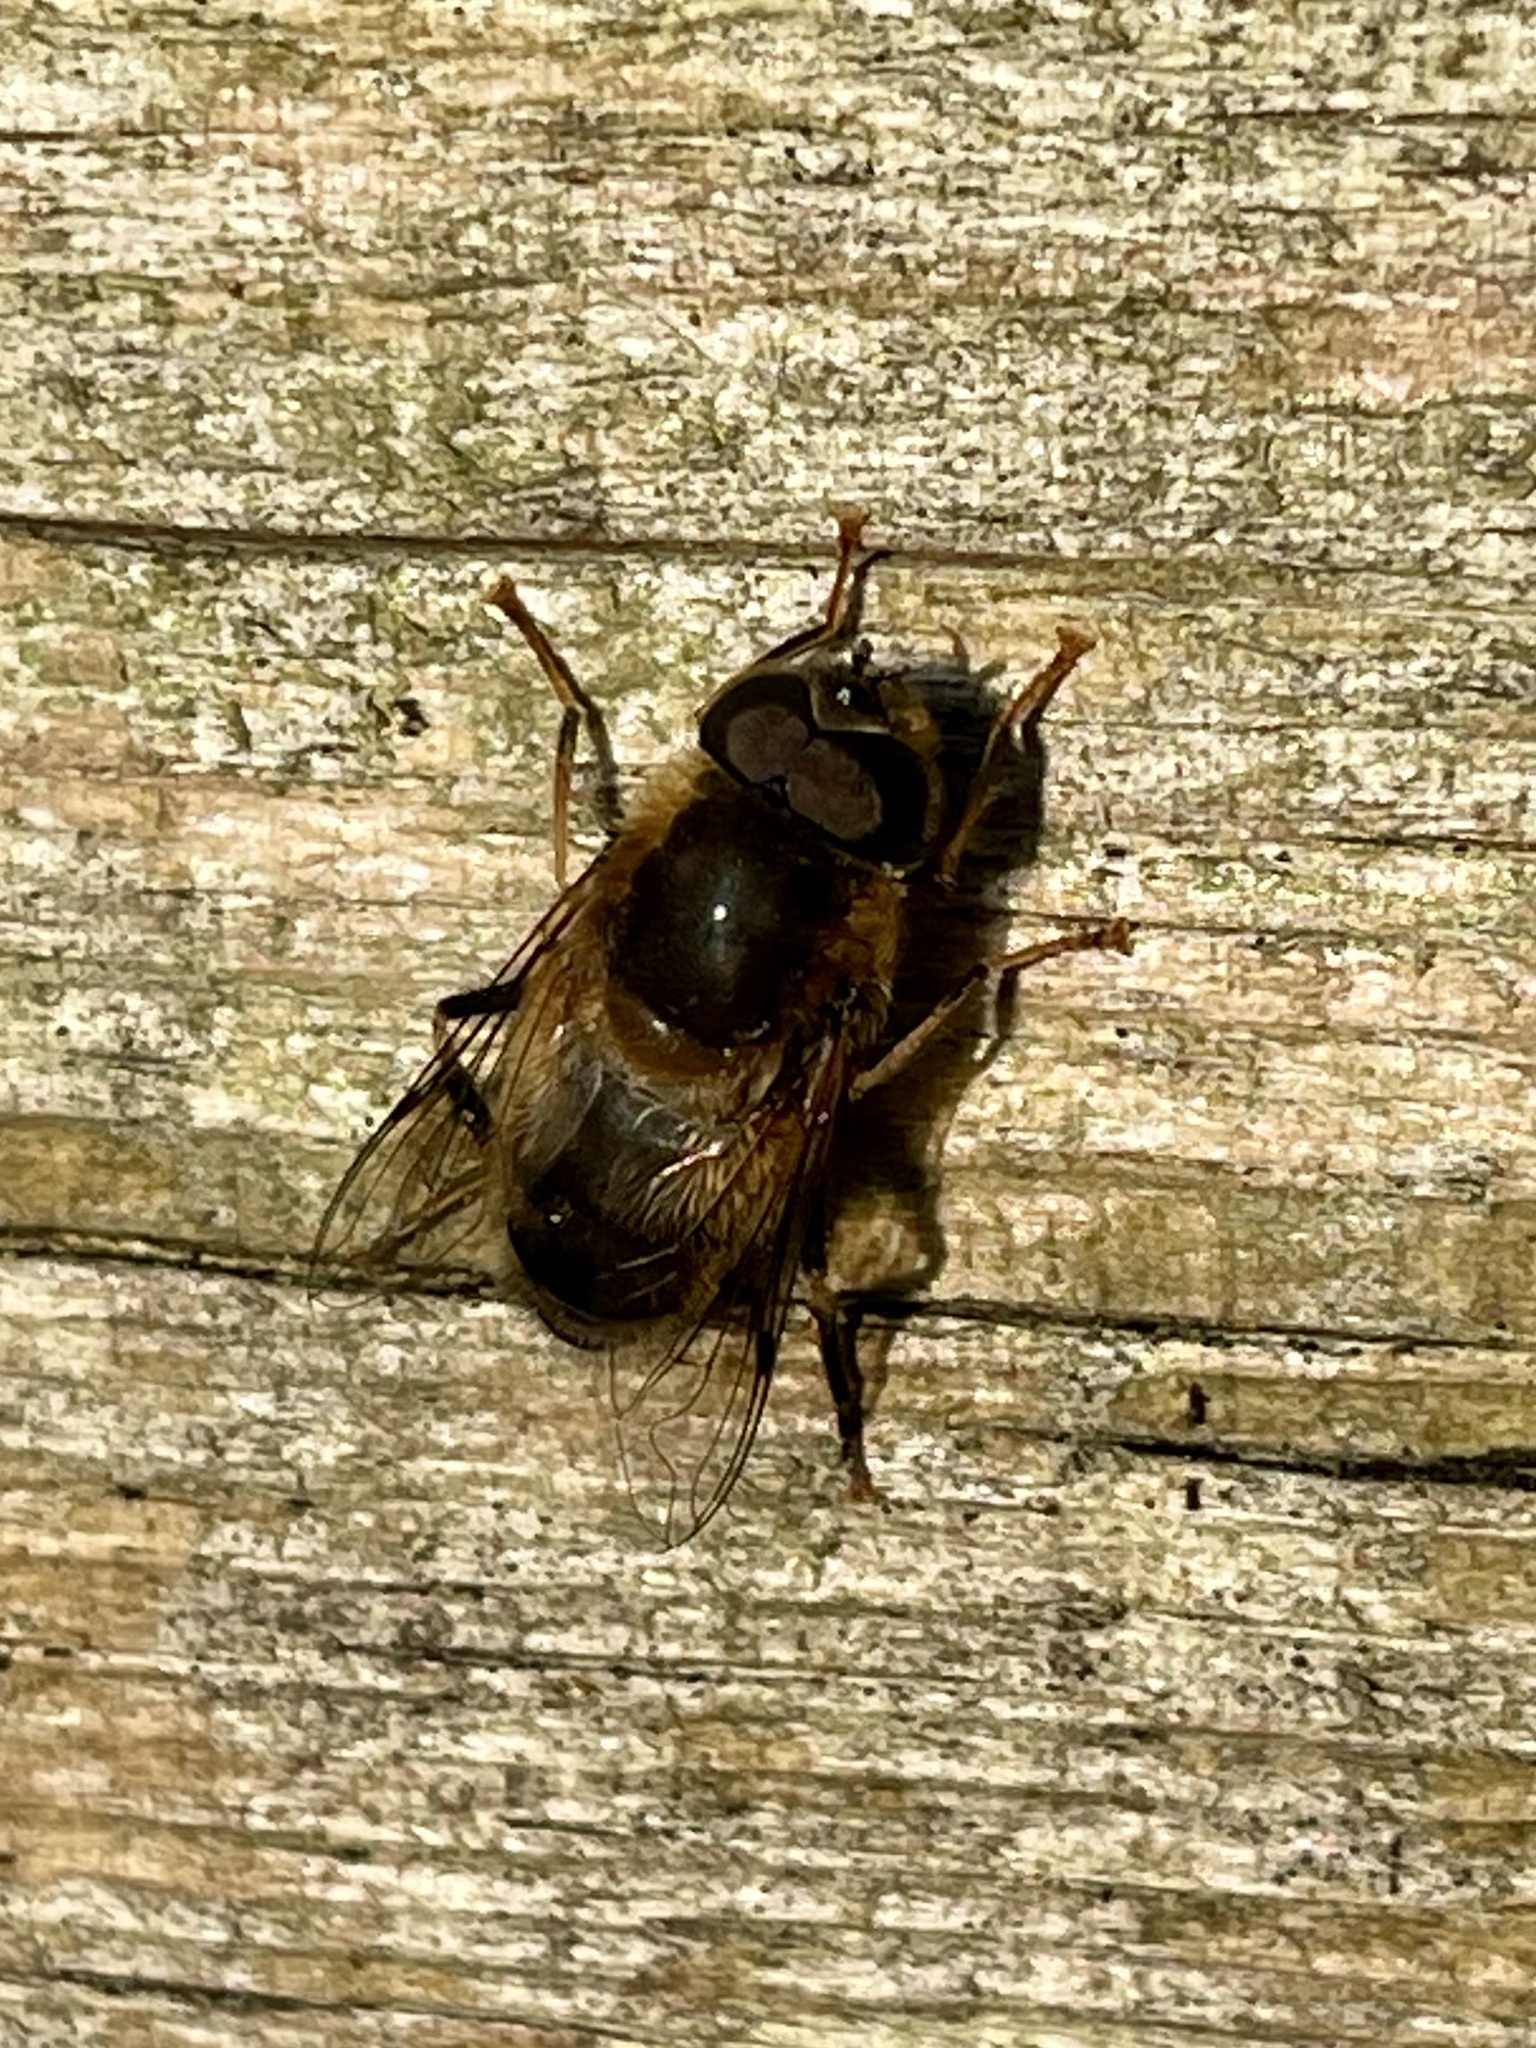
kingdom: Animalia
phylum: Arthropoda
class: Insecta
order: Diptera
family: Syrphidae
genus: Eristalis
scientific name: Eristalis pertinax
